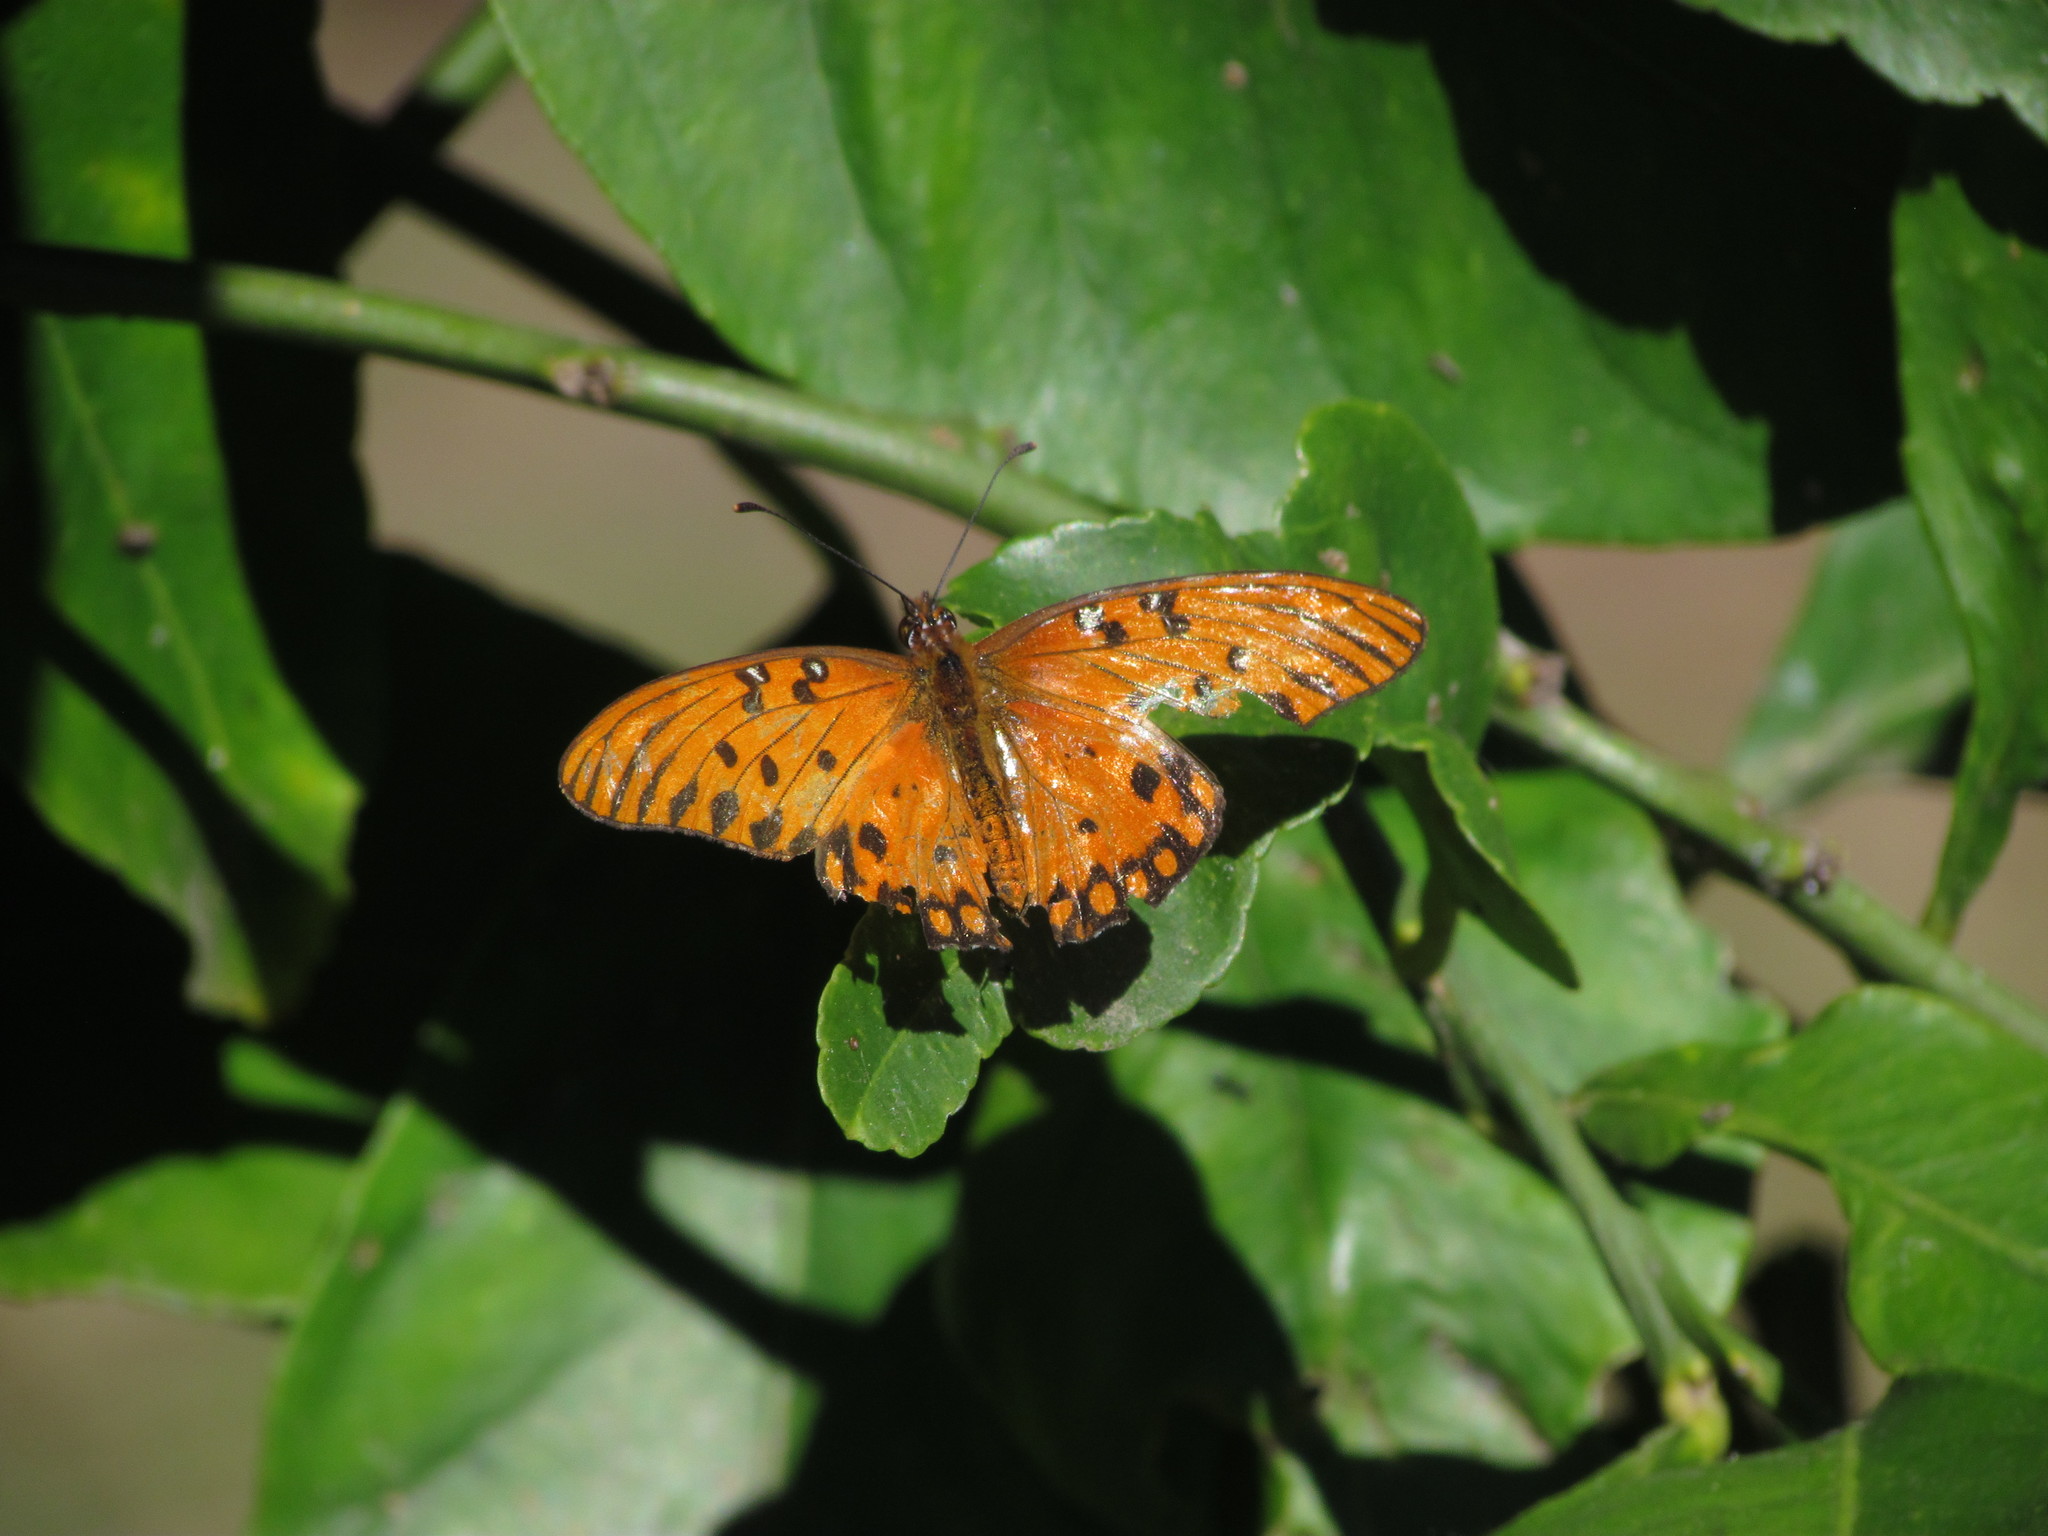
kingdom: Animalia
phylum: Arthropoda
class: Insecta
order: Lepidoptera
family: Nymphalidae
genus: Dione
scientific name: Dione vanillae
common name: Gulf fritillary
